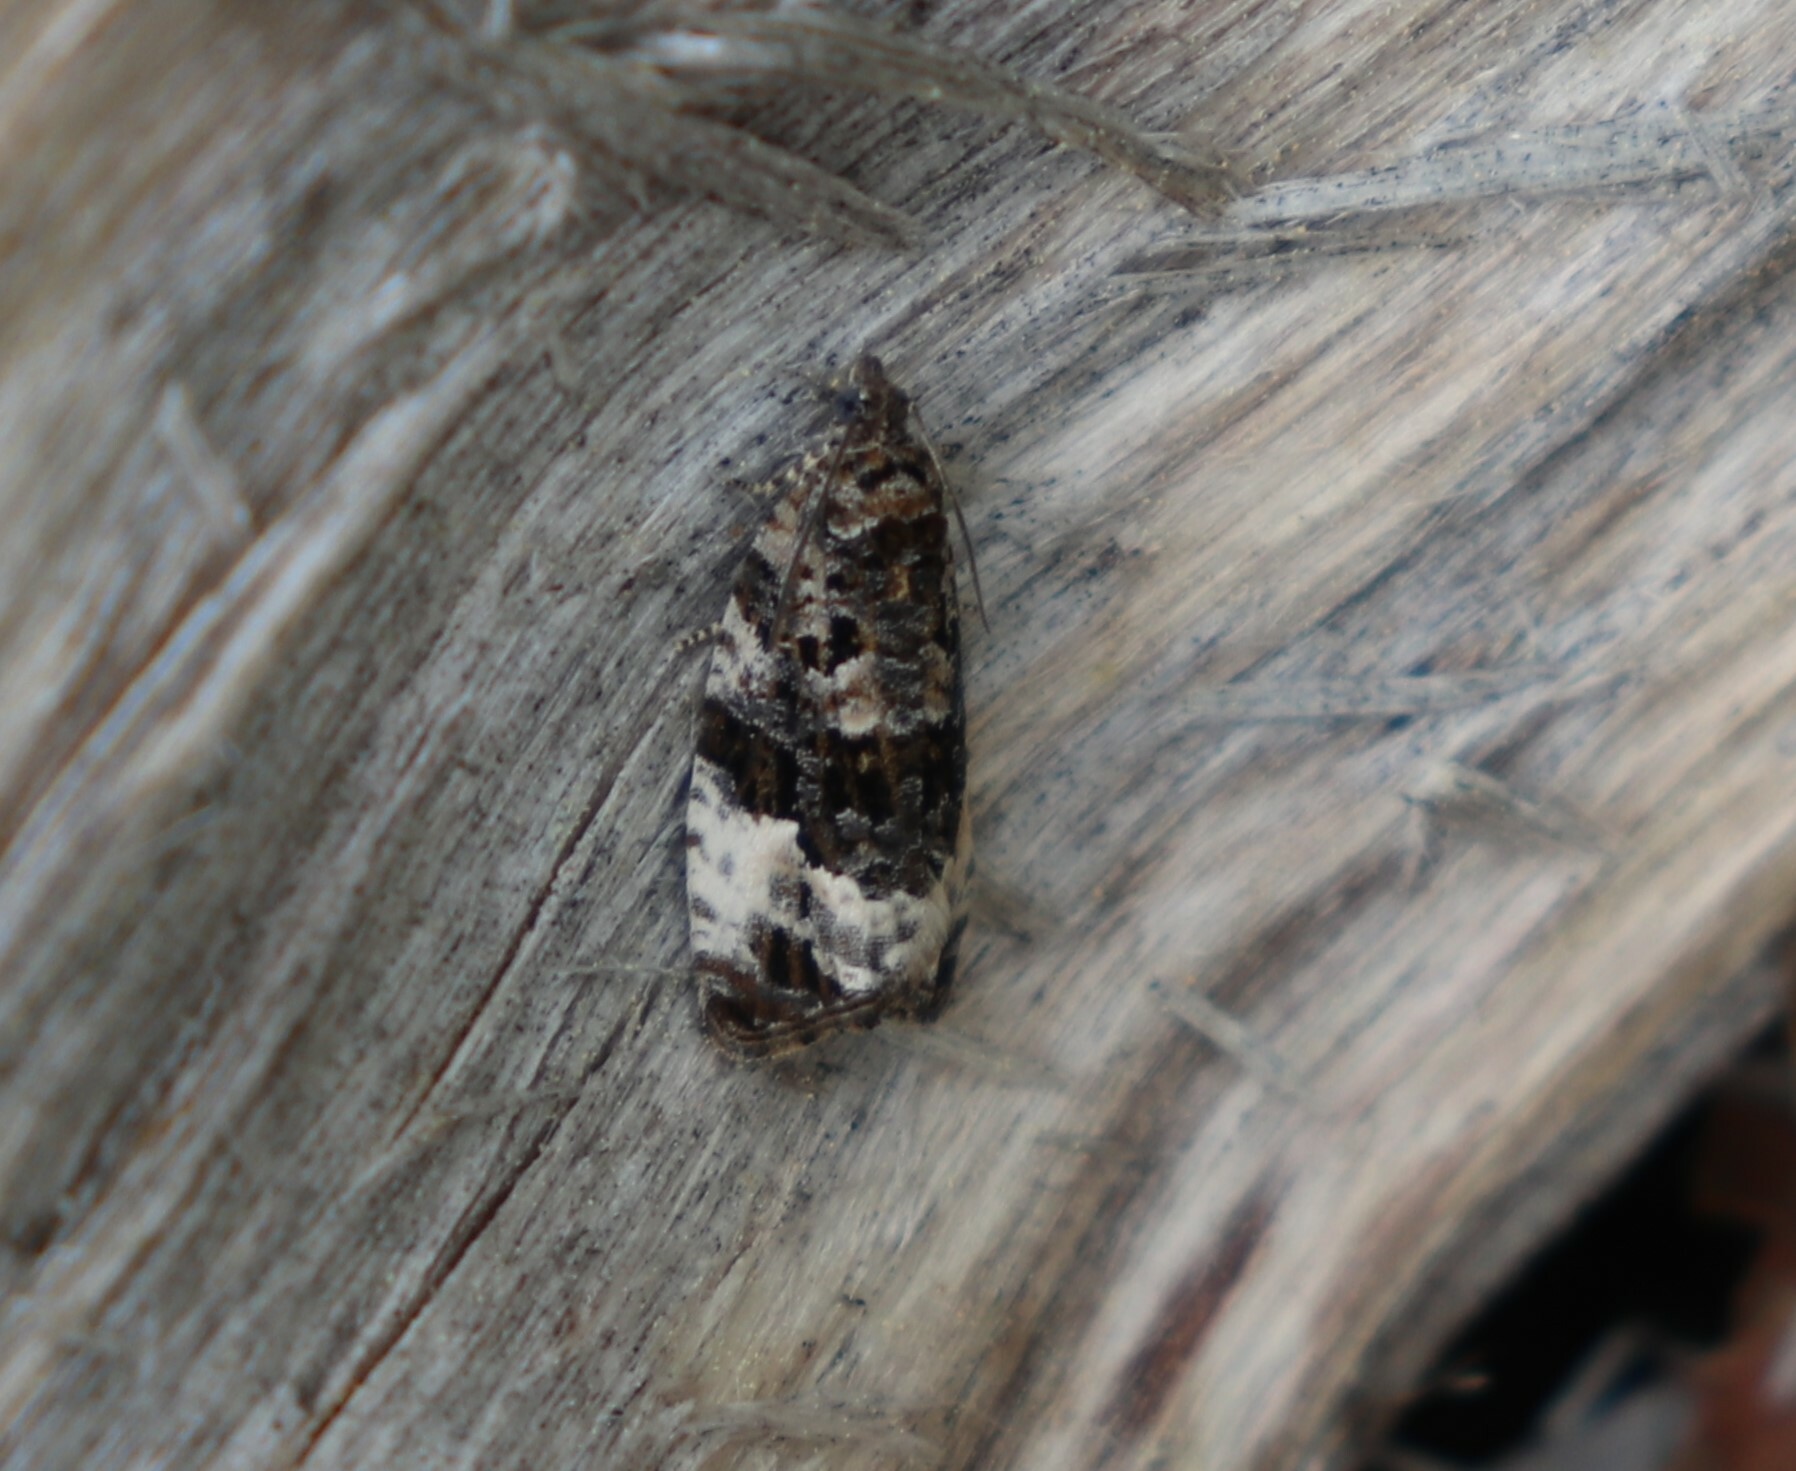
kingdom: Animalia
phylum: Arthropoda
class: Insecta
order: Lepidoptera
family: Tortricidae
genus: Apotomis
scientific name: Apotomis sororculana
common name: Narrow-winged marble
